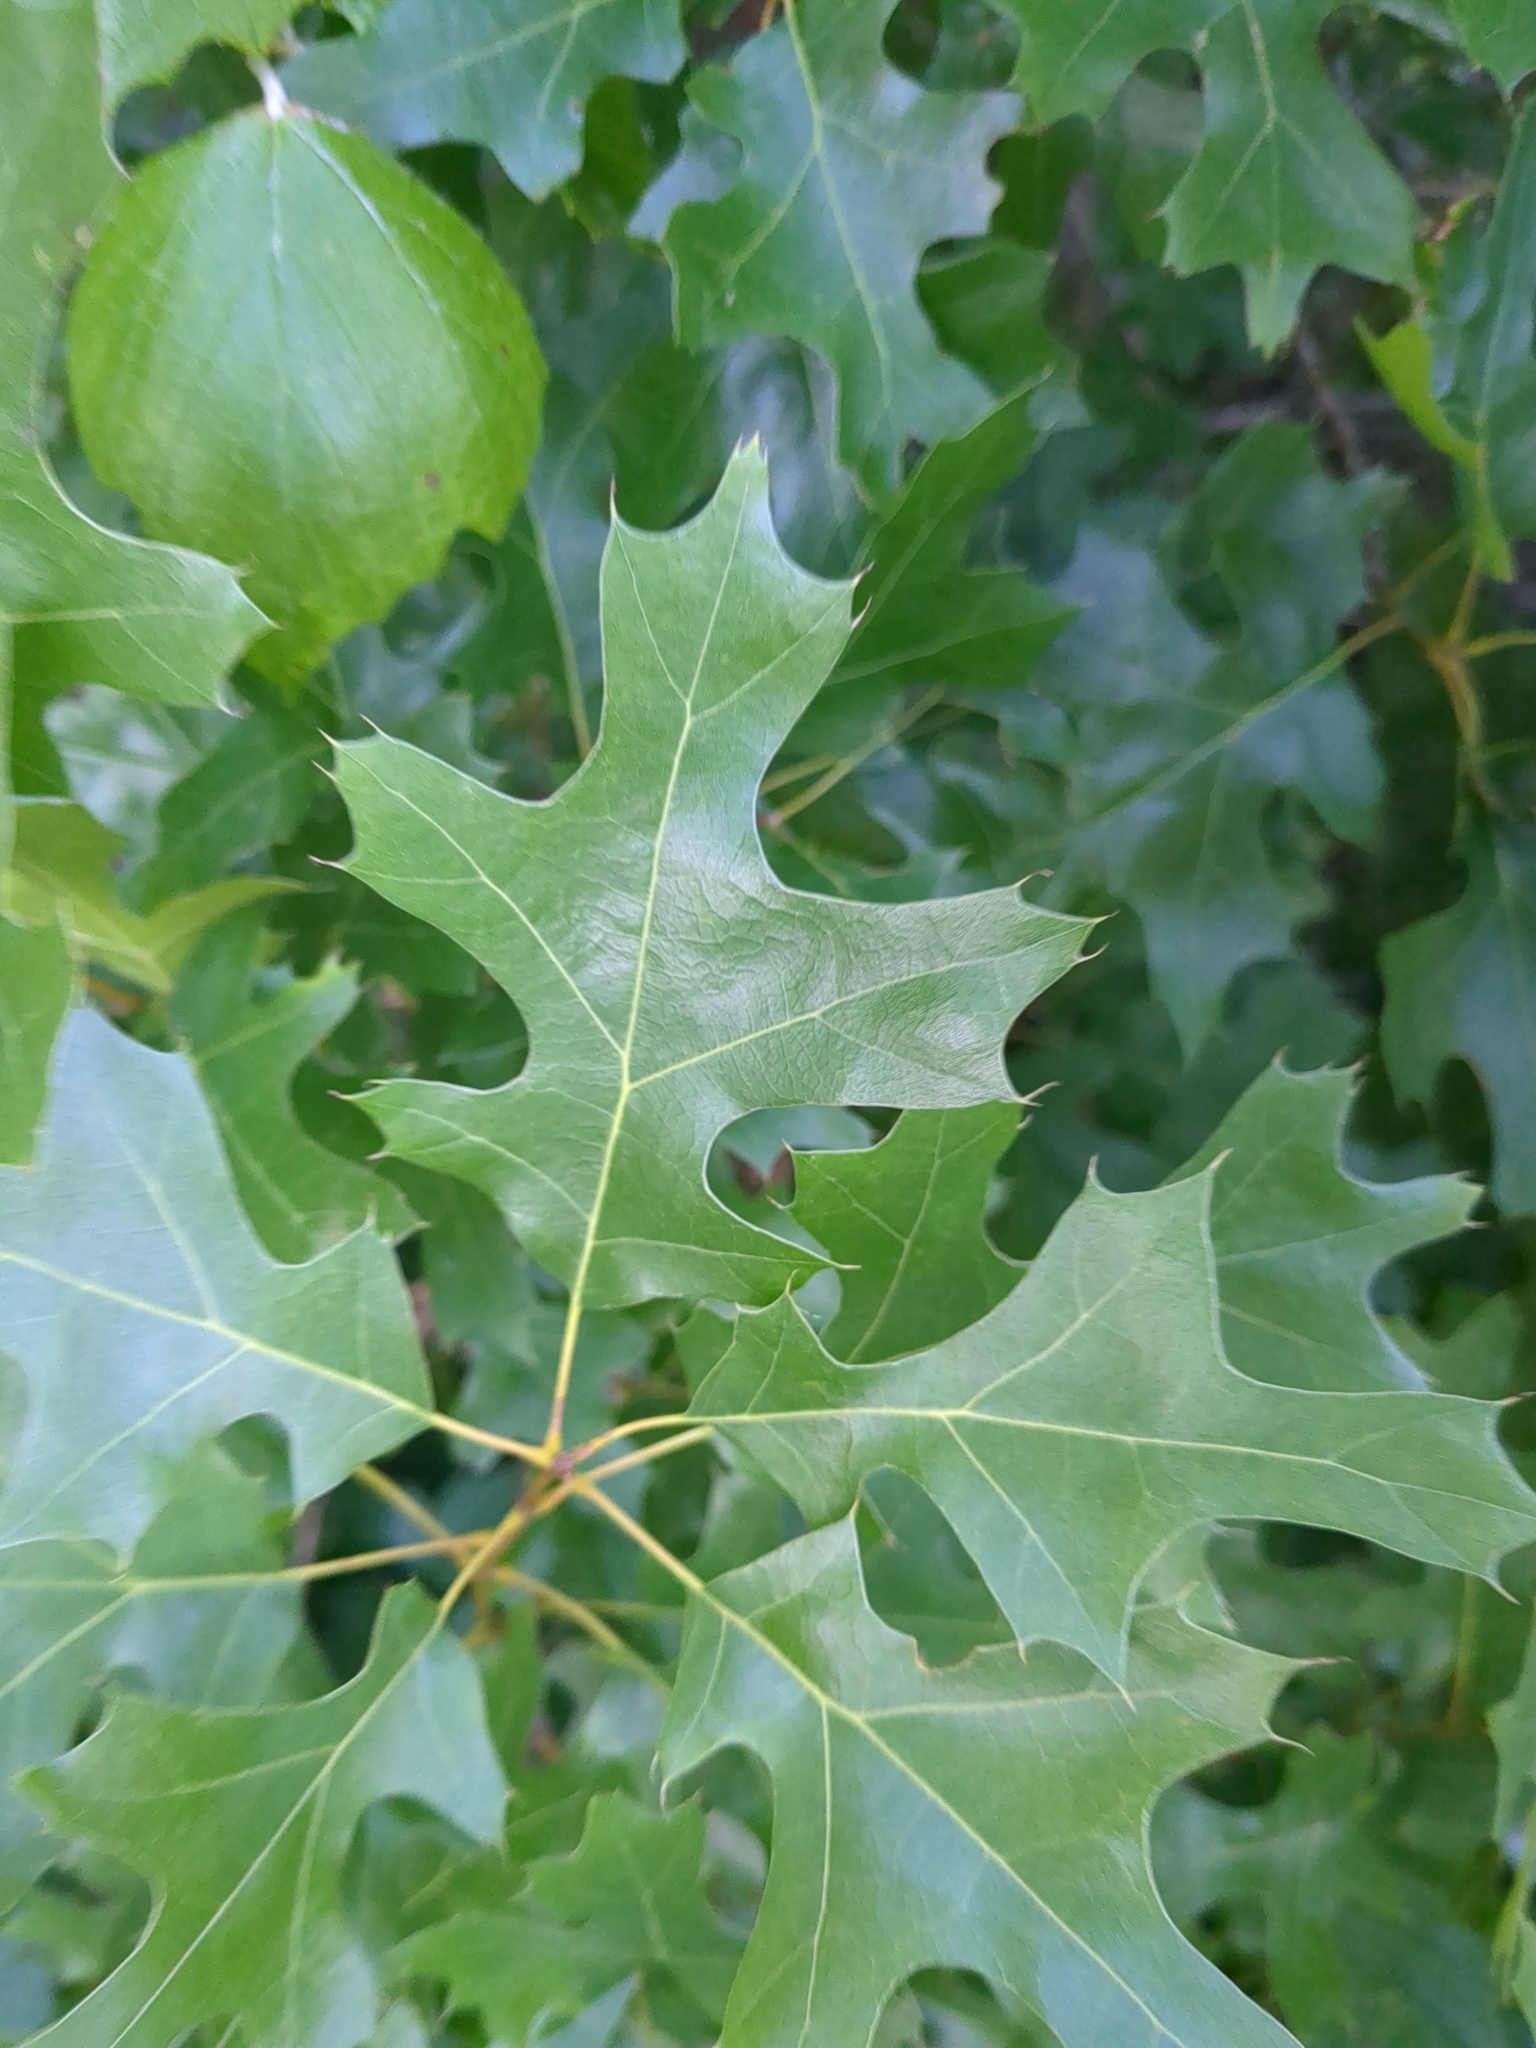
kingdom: Plantae
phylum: Tracheophyta
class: Magnoliopsida
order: Fagales
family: Fagaceae
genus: Quercus
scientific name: Quercus buckleyi
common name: Buckley oak
